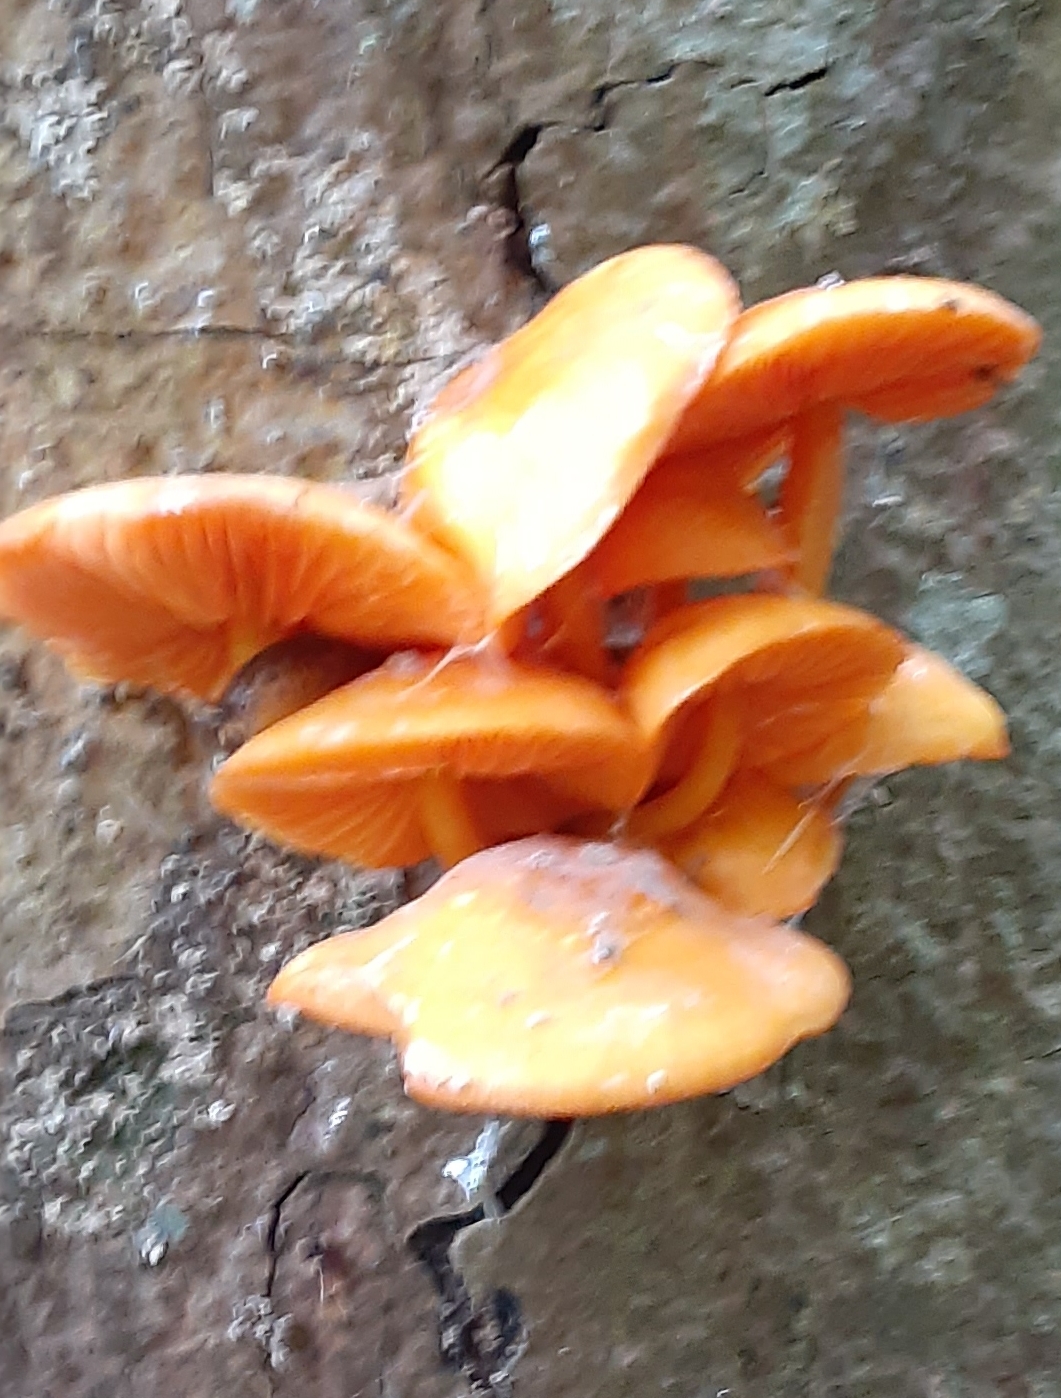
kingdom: Fungi
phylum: Basidiomycota
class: Agaricomycetes
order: Agaricales
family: Mycenaceae
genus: Mycena
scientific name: Mycena leaiana
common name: Orange mycena
